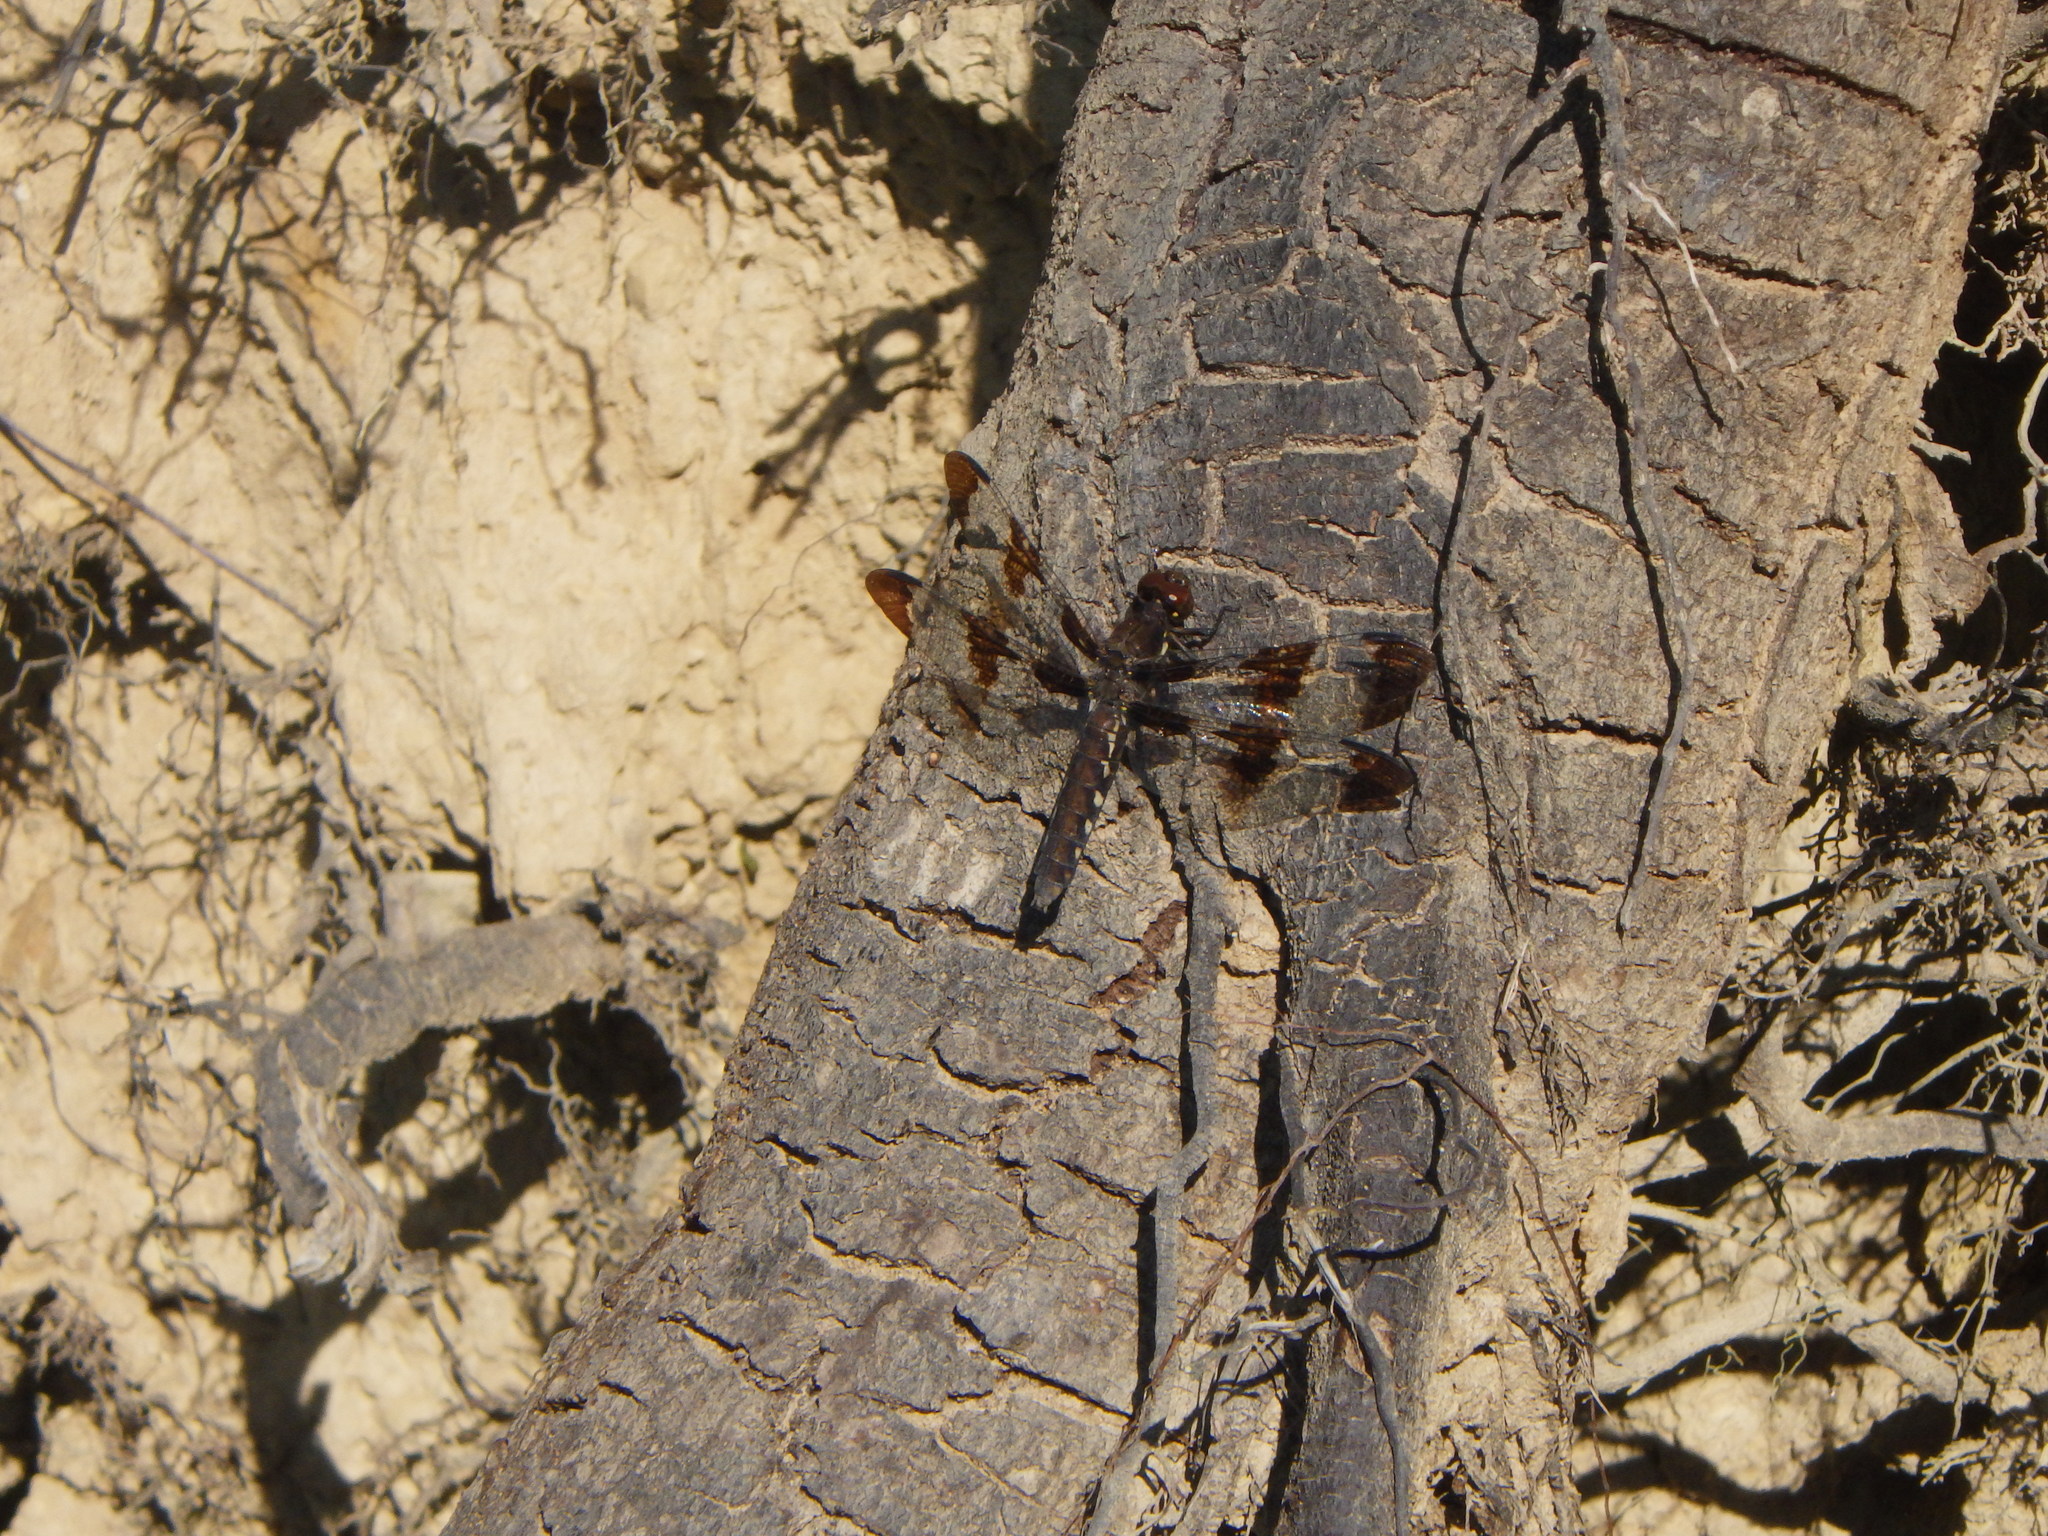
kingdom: Animalia
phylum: Arthropoda
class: Insecta
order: Odonata
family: Libellulidae
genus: Plathemis
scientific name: Plathemis lydia
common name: Common whitetail
